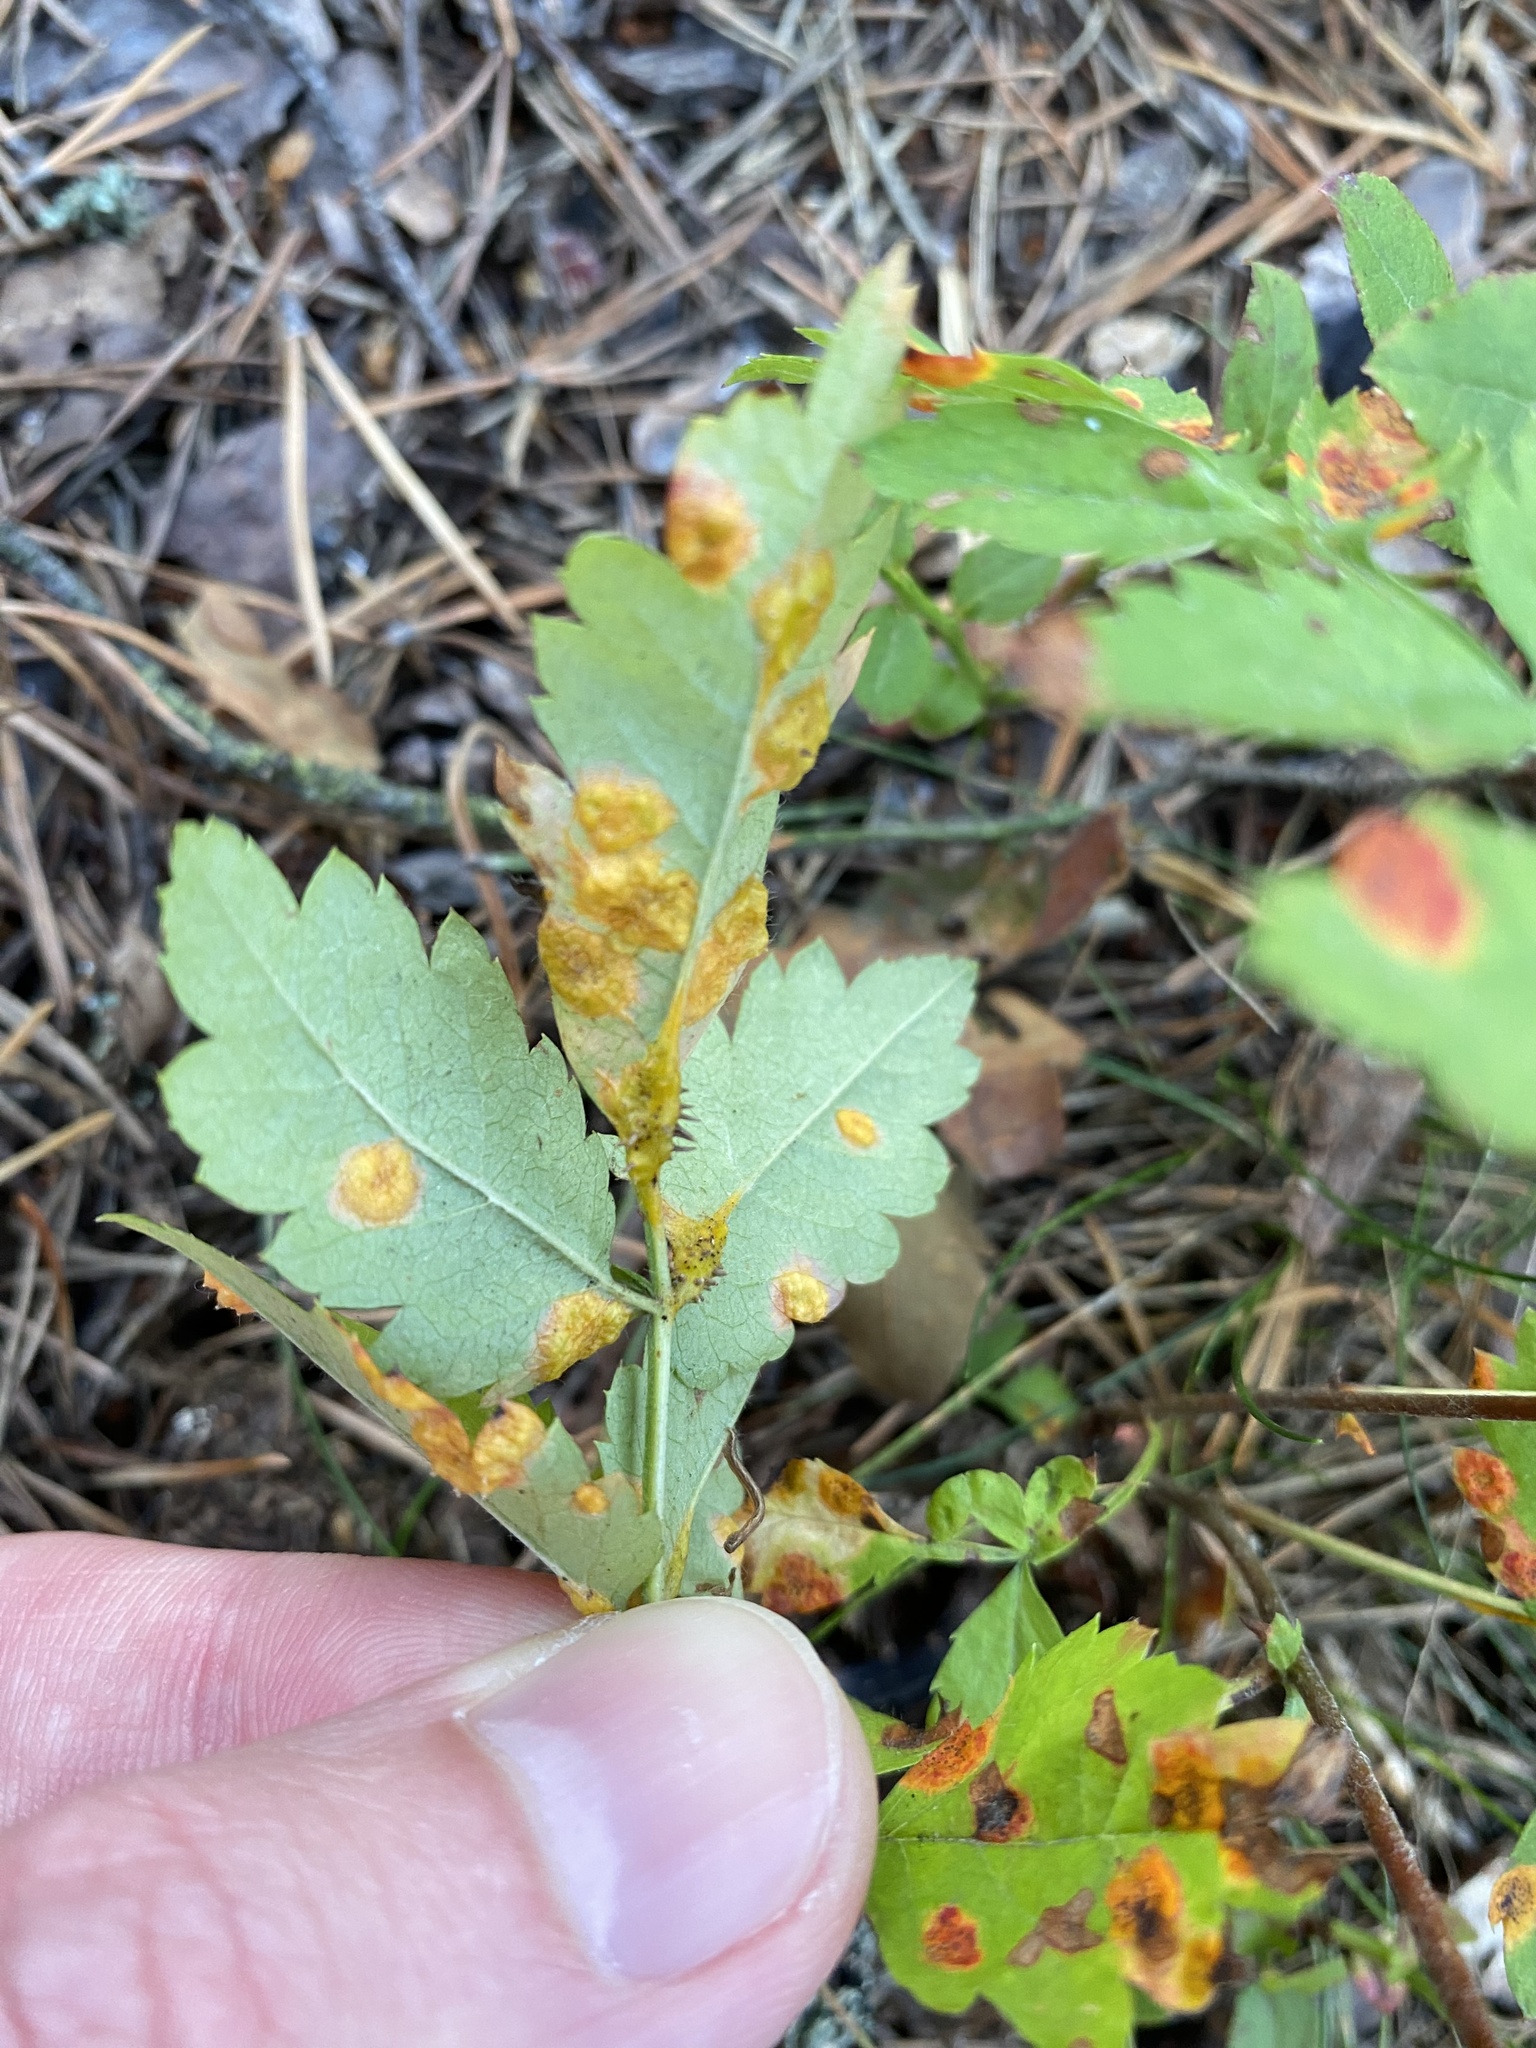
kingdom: Fungi
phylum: Basidiomycota
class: Pucciniomycetes
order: Pucciniales
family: Gymnosporangiaceae
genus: Gymnosporangium
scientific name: Gymnosporangium cornutum
